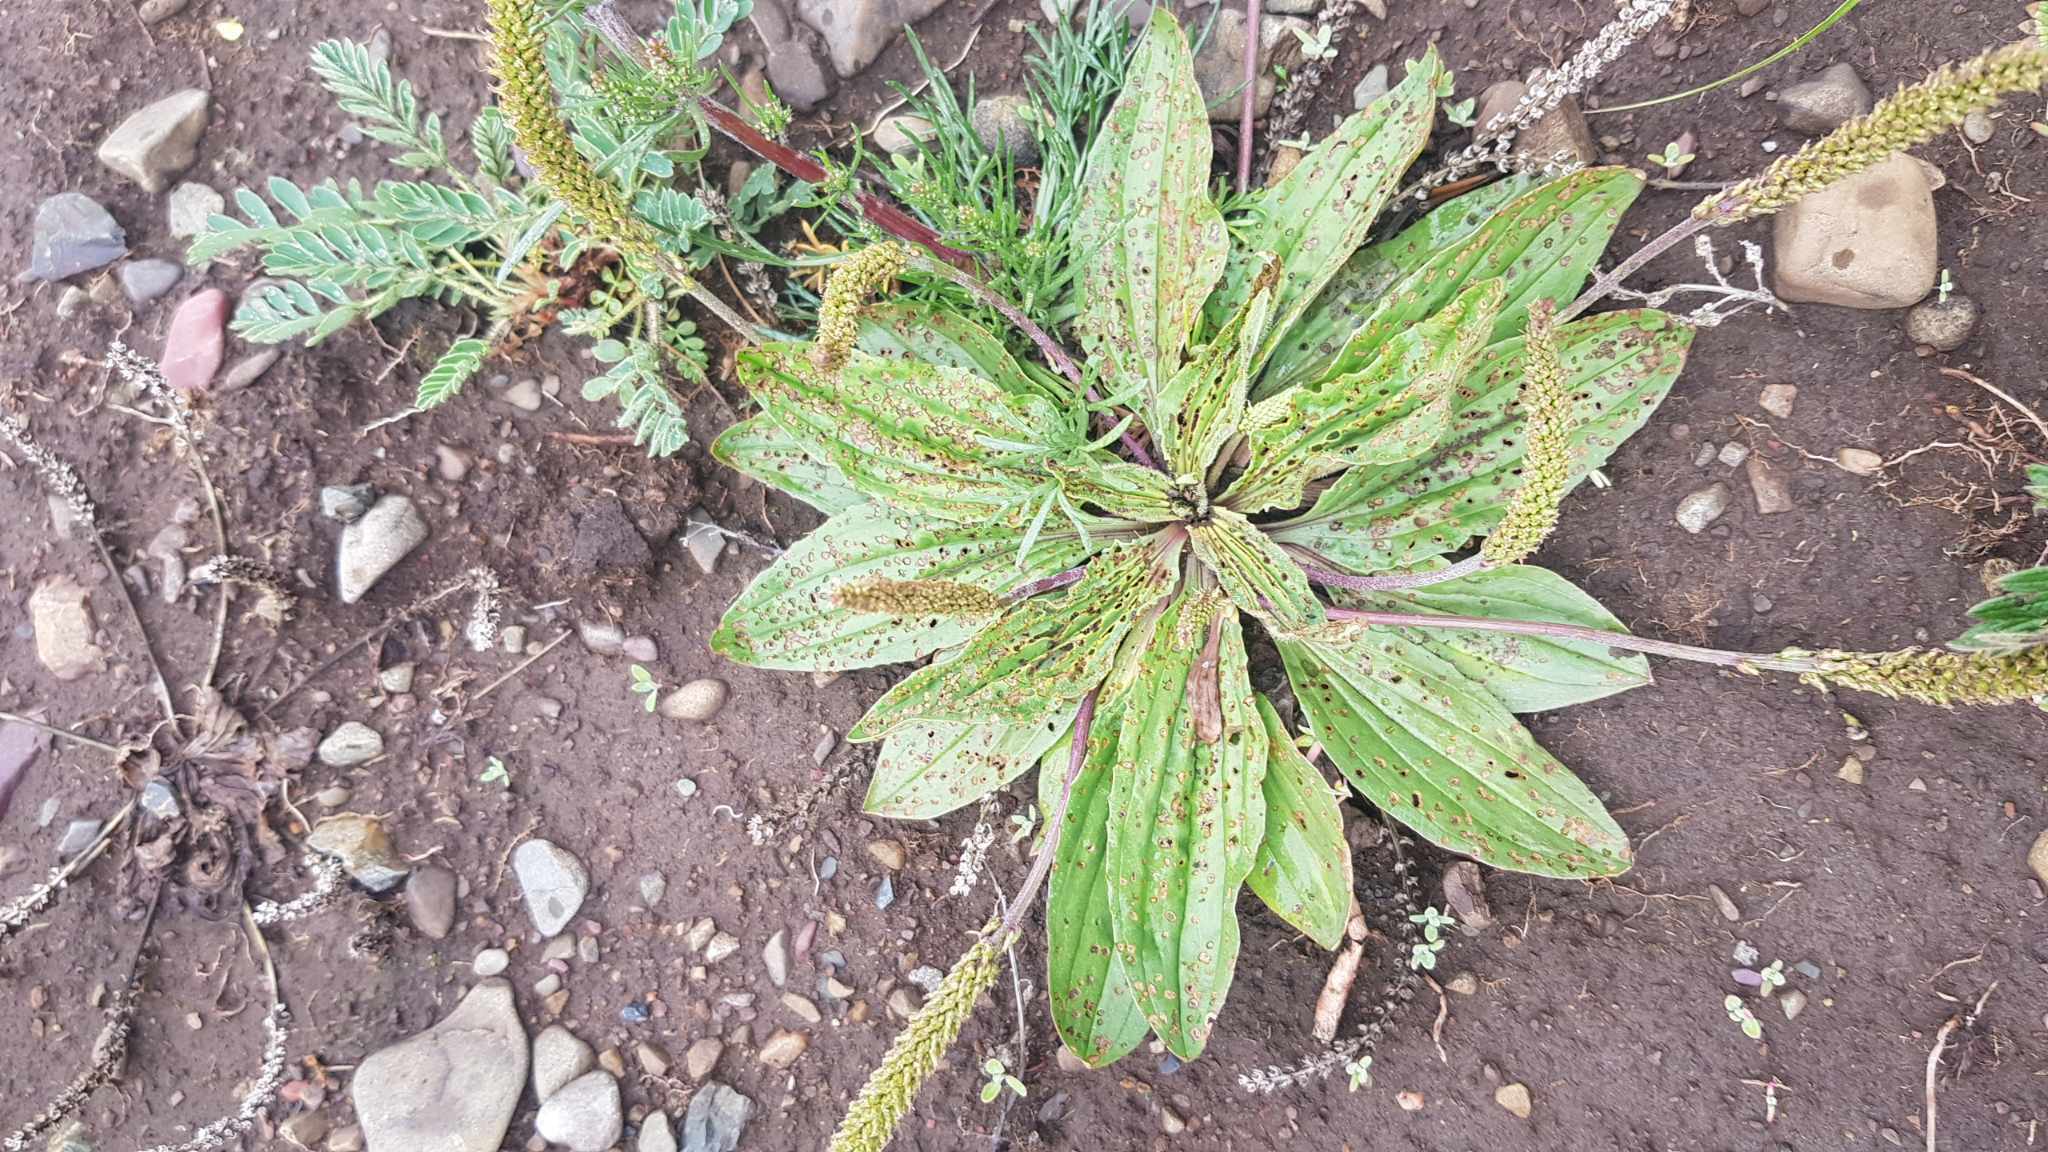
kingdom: Plantae
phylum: Tracheophyta
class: Magnoliopsida
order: Lamiales
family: Plantaginaceae
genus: Plantago
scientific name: Plantago depressa
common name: Depressed plantain
